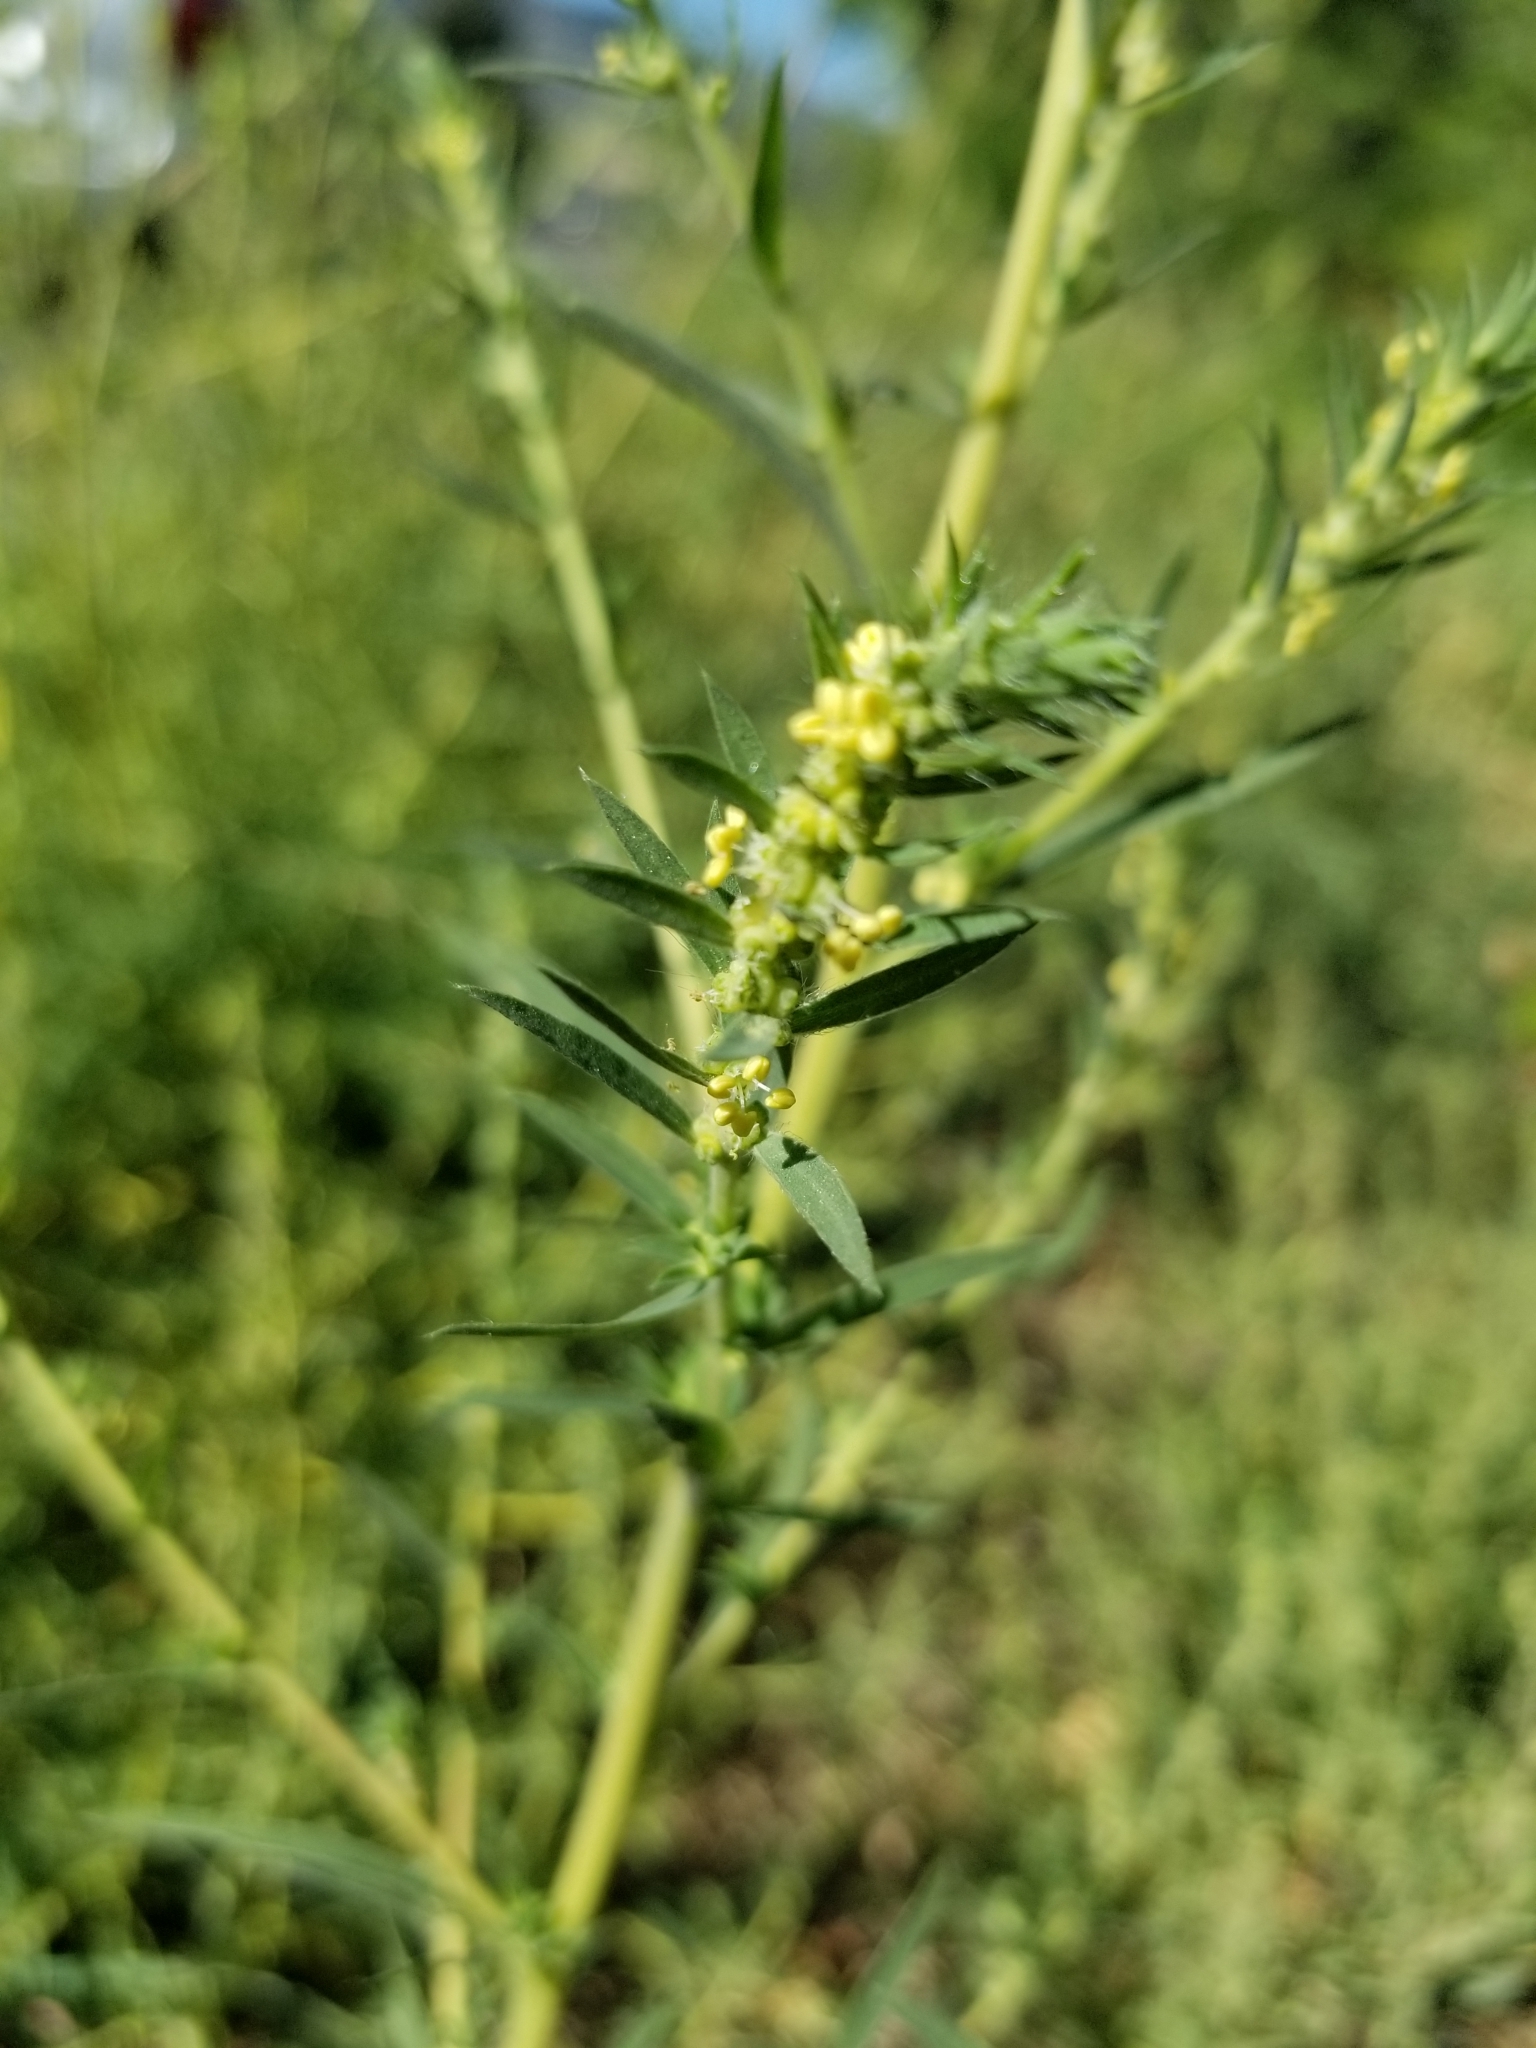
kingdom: Plantae
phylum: Tracheophyta
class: Magnoliopsida
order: Caryophyllales
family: Amaranthaceae
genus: Bassia
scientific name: Bassia scoparia
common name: Belvedere
